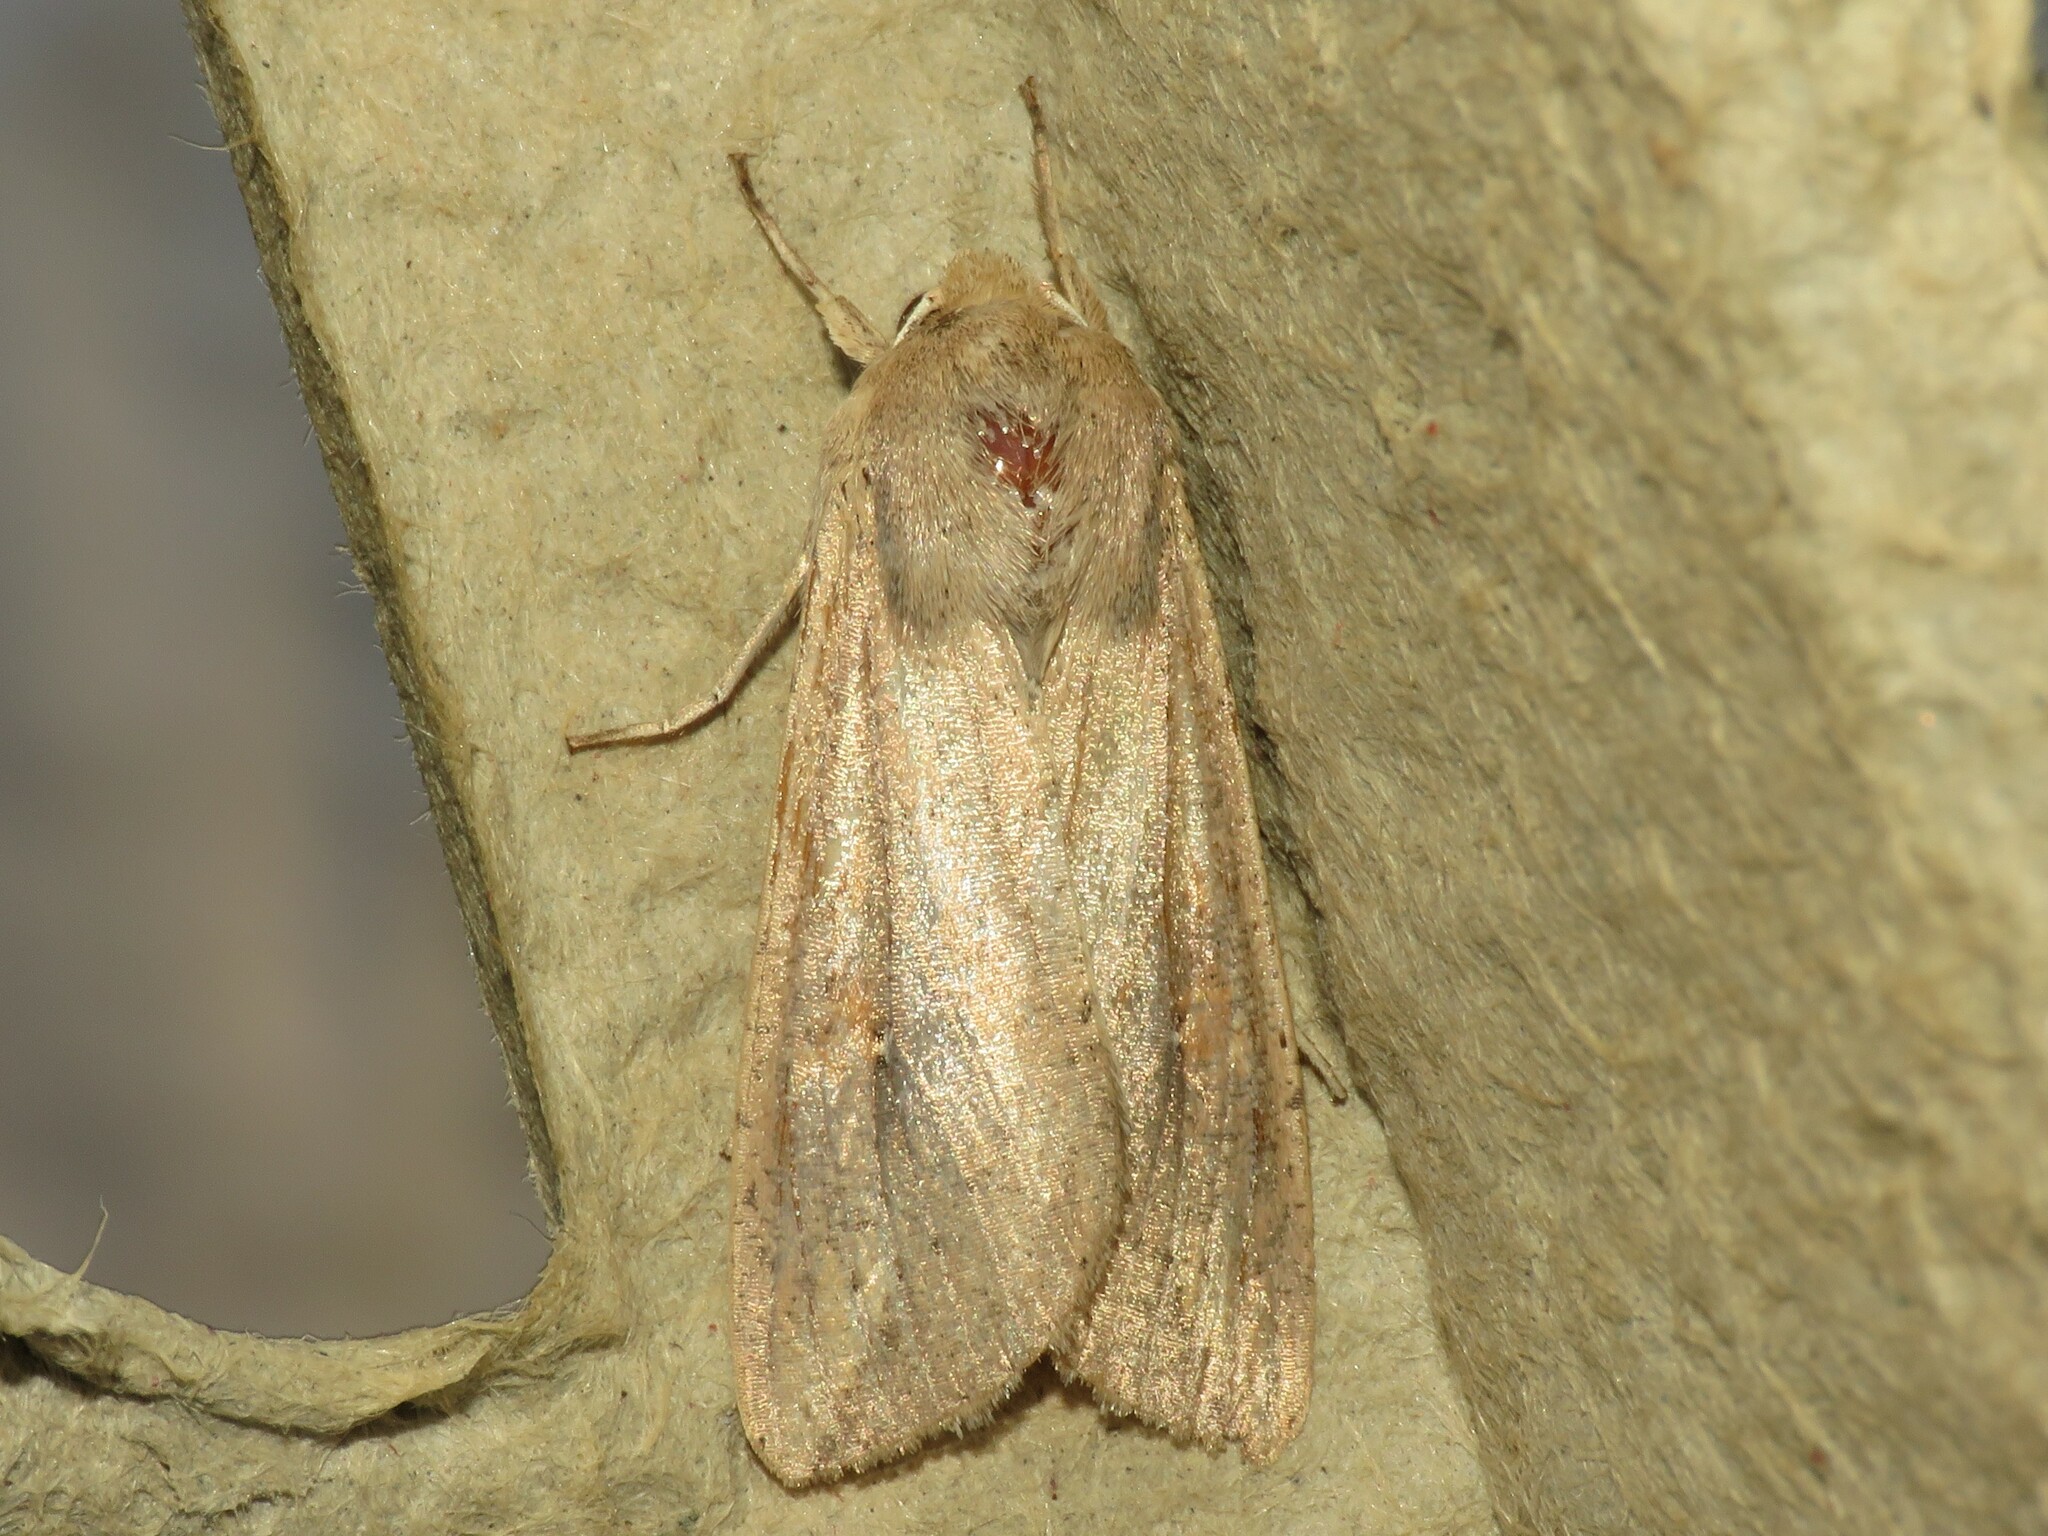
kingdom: Animalia
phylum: Arthropoda
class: Insecta
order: Lepidoptera
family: Noctuidae
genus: Mythimna
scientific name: Mythimna unipuncta
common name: White-speck
